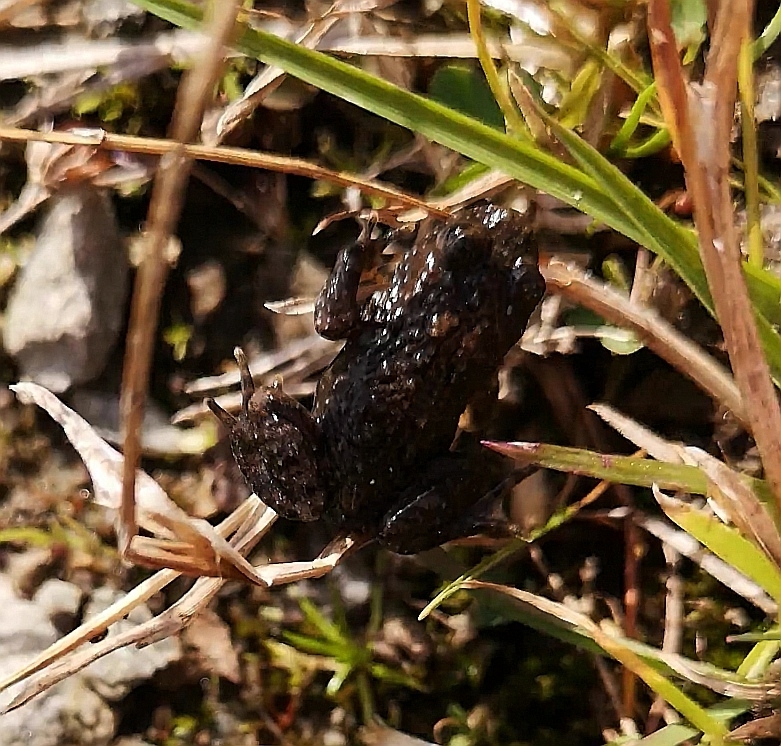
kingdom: Animalia
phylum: Chordata
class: Amphibia
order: Anura
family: Bombinatoridae
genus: Bombina
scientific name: Bombina variegata
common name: Yellow-bellied toad
